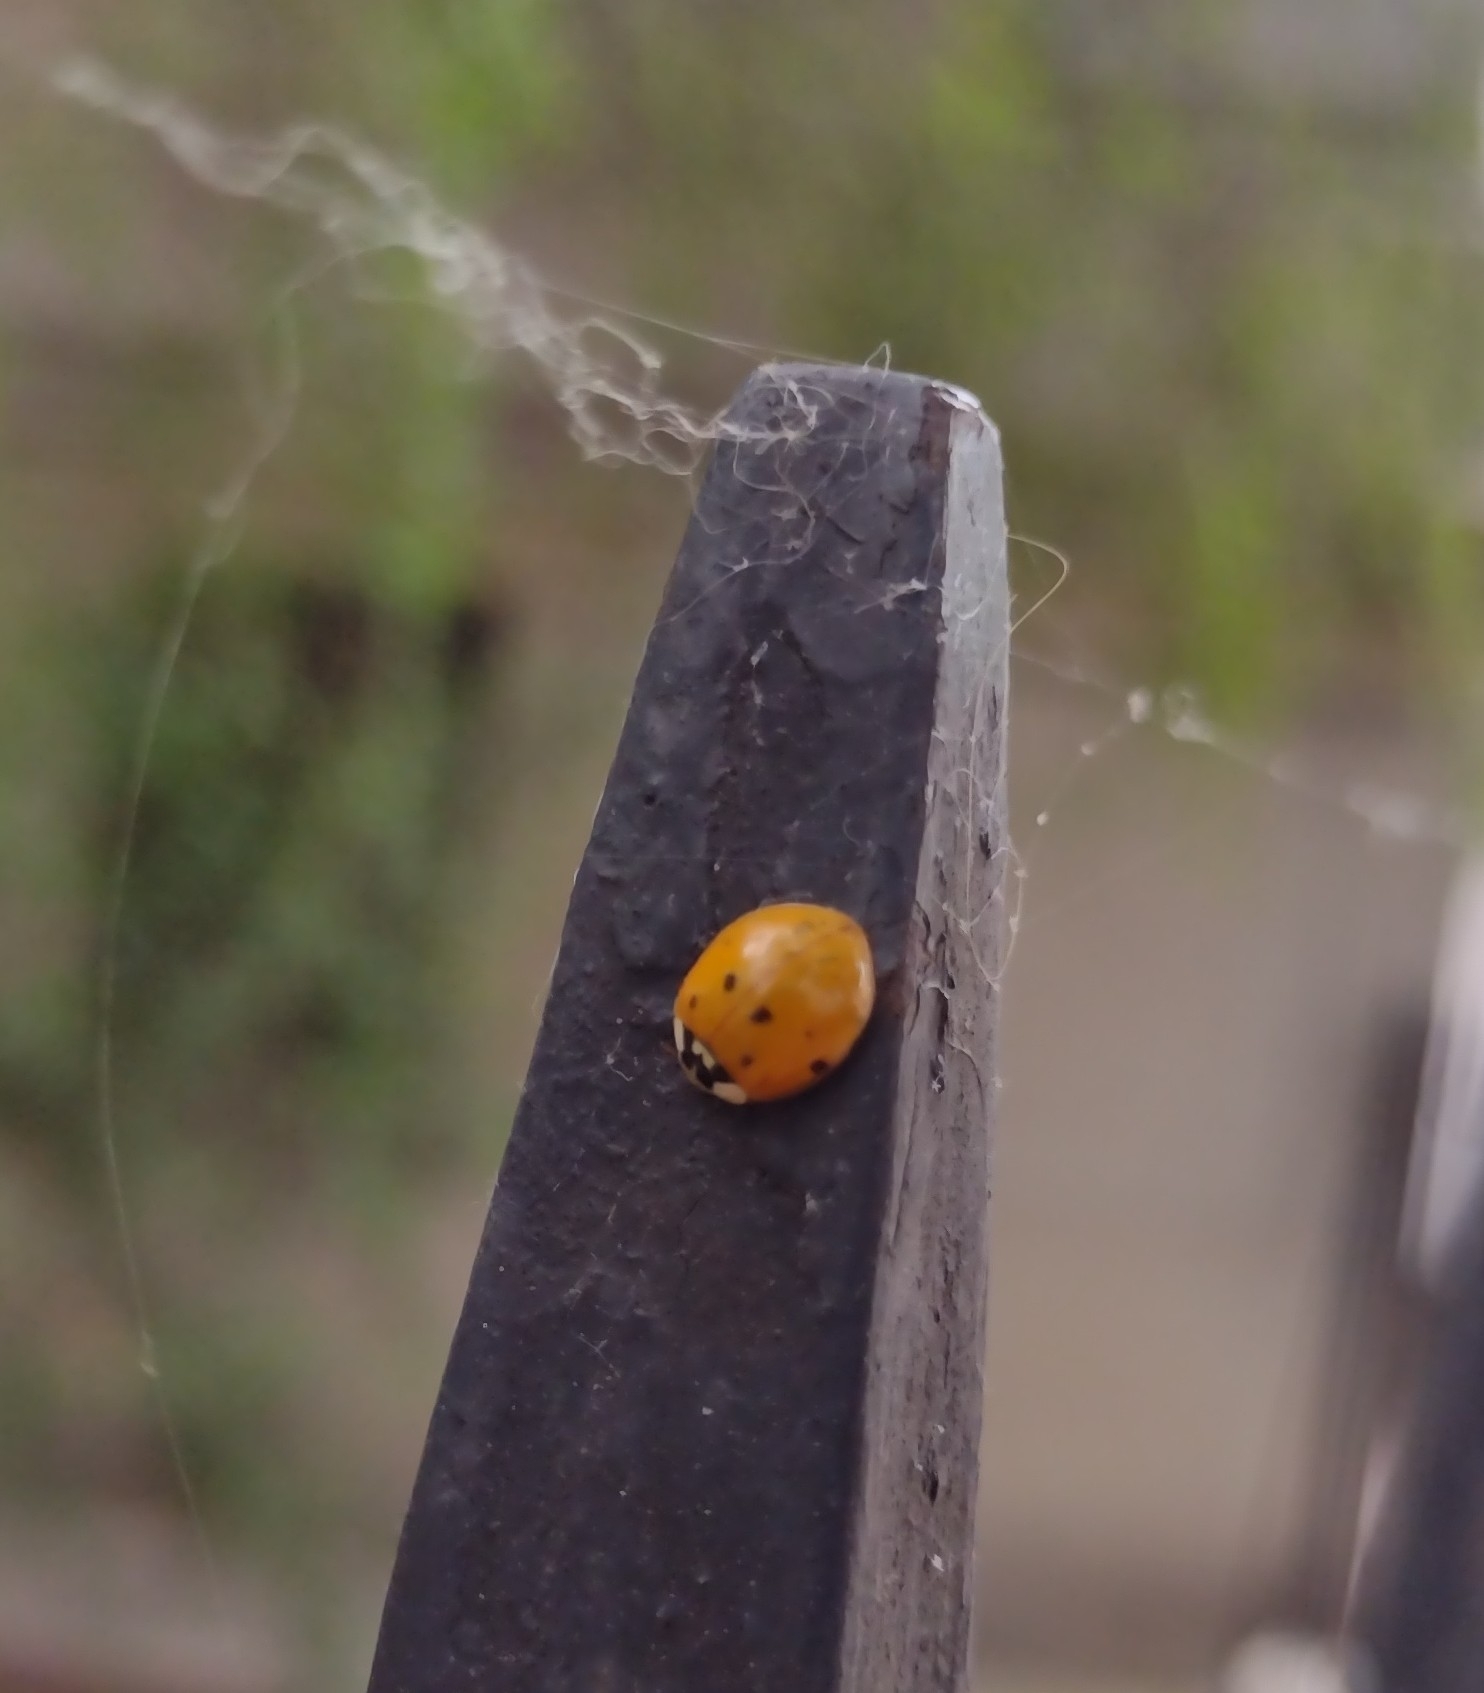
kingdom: Animalia
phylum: Arthropoda
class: Insecta
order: Coleoptera
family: Coccinellidae
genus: Harmonia
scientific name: Harmonia axyridis
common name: Harlequin ladybird
